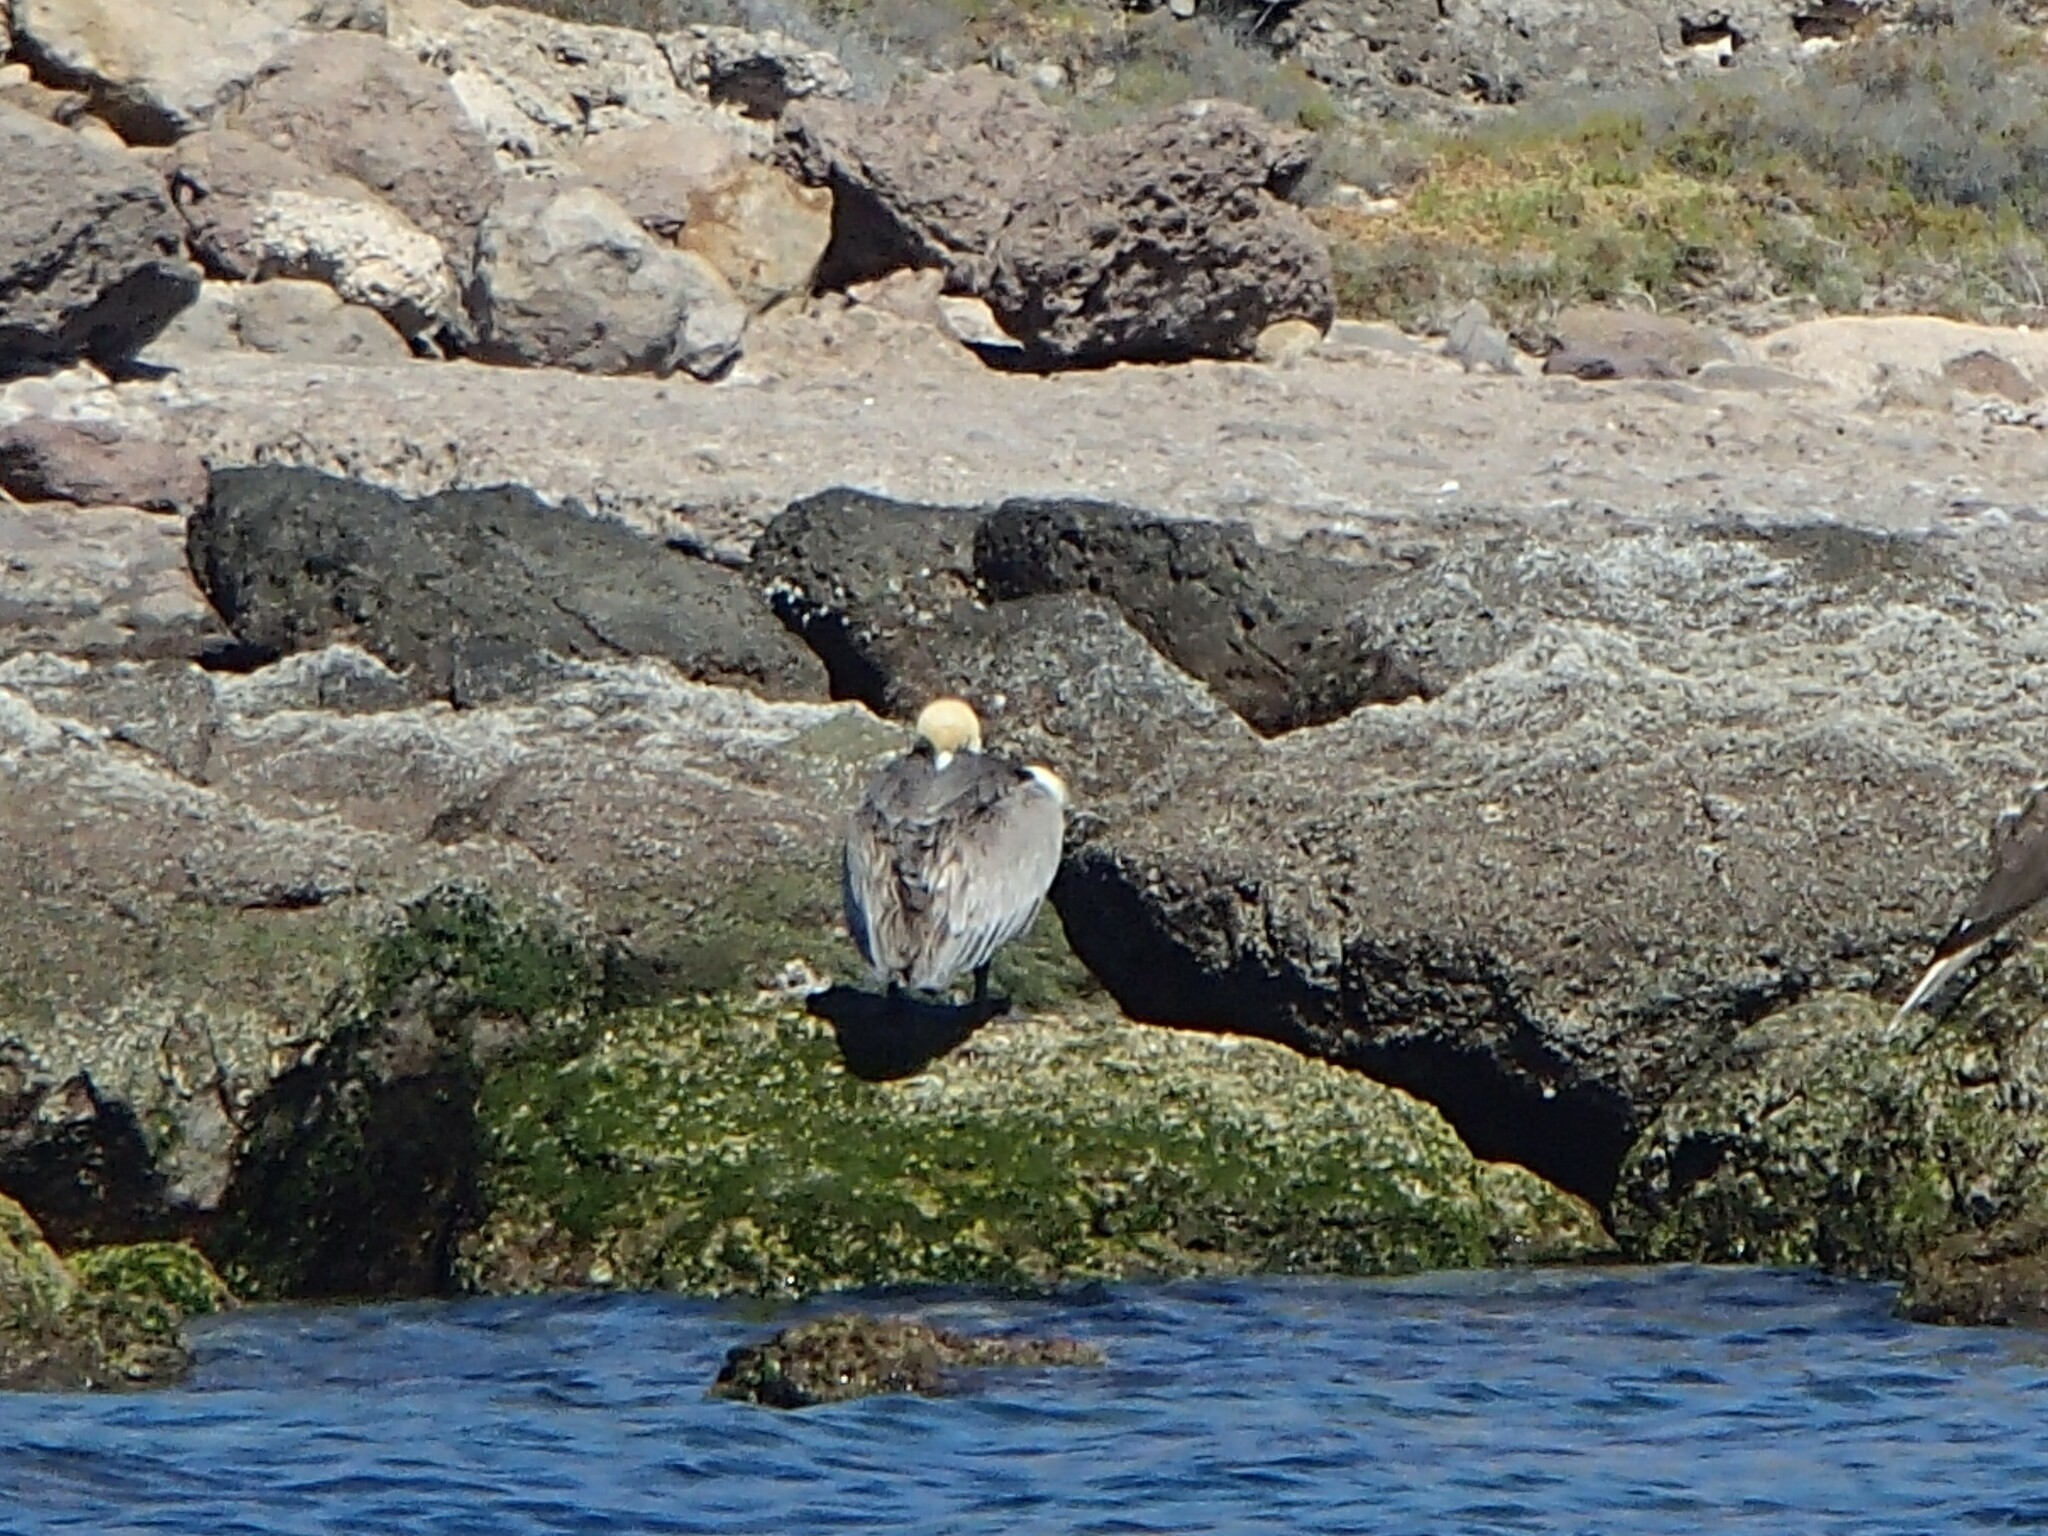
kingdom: Animalia
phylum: Chordata
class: Aves
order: Pelecaniformes
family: Pelecanidae
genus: Pelecanus
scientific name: Pelecanus occidentalis
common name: Brown pelican
